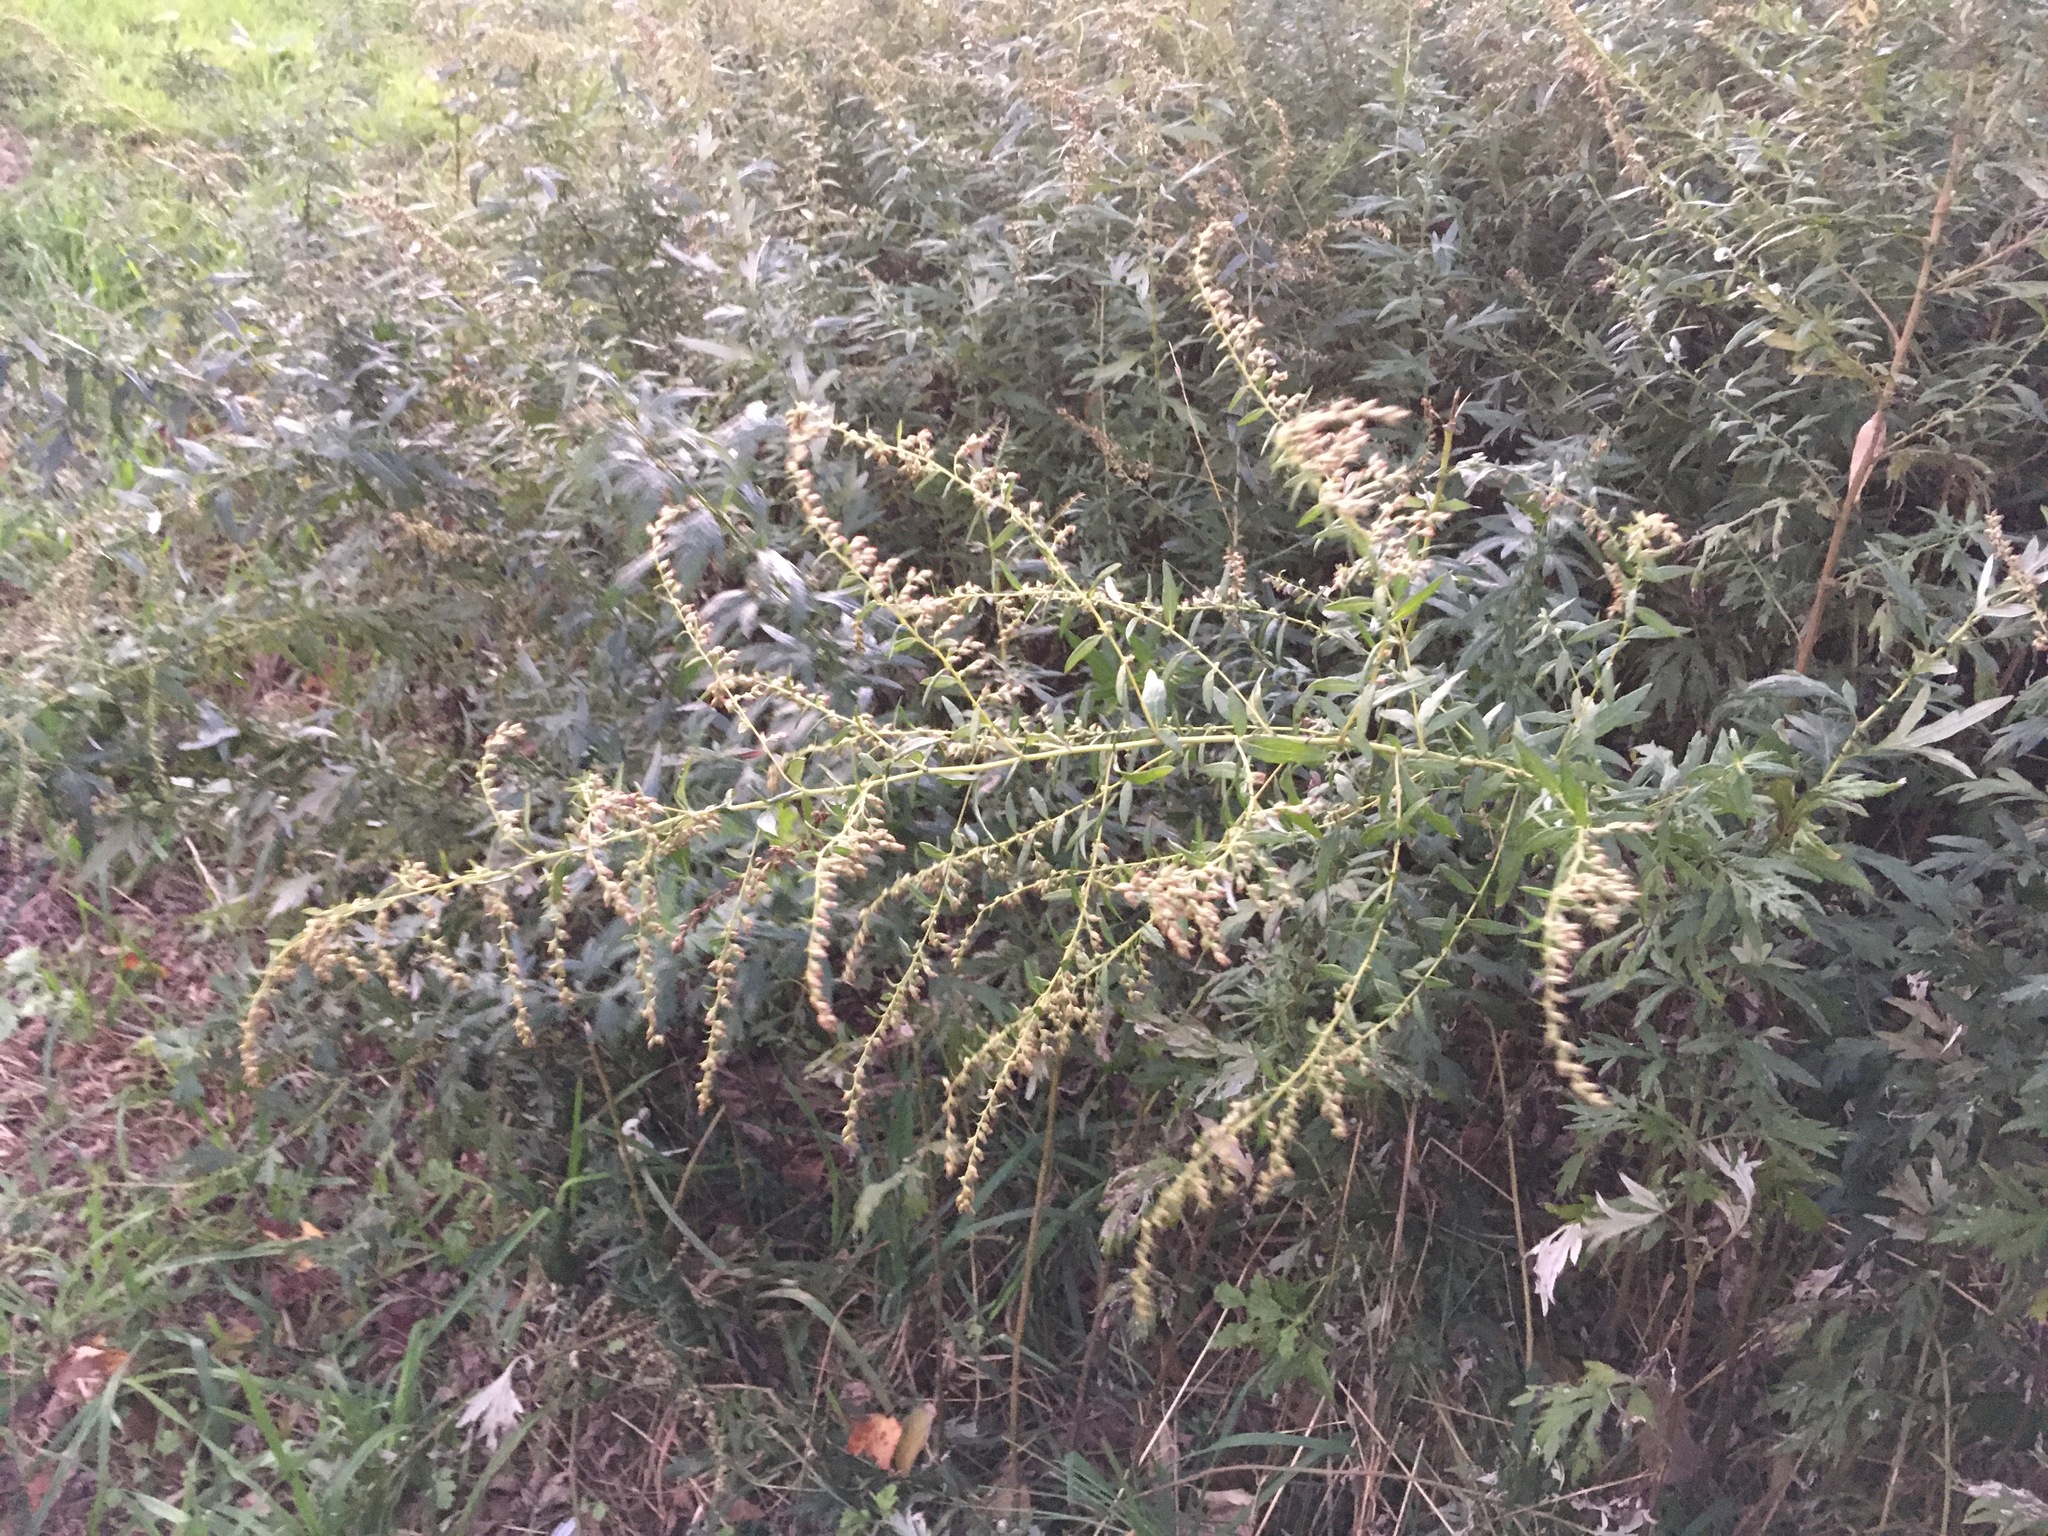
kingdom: Plantae
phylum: Tracheophyta
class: Magnoliopsida
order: Asterales
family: Asteraceae
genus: Artemisia
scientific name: Artemisia vulgaris
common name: Mugwort
